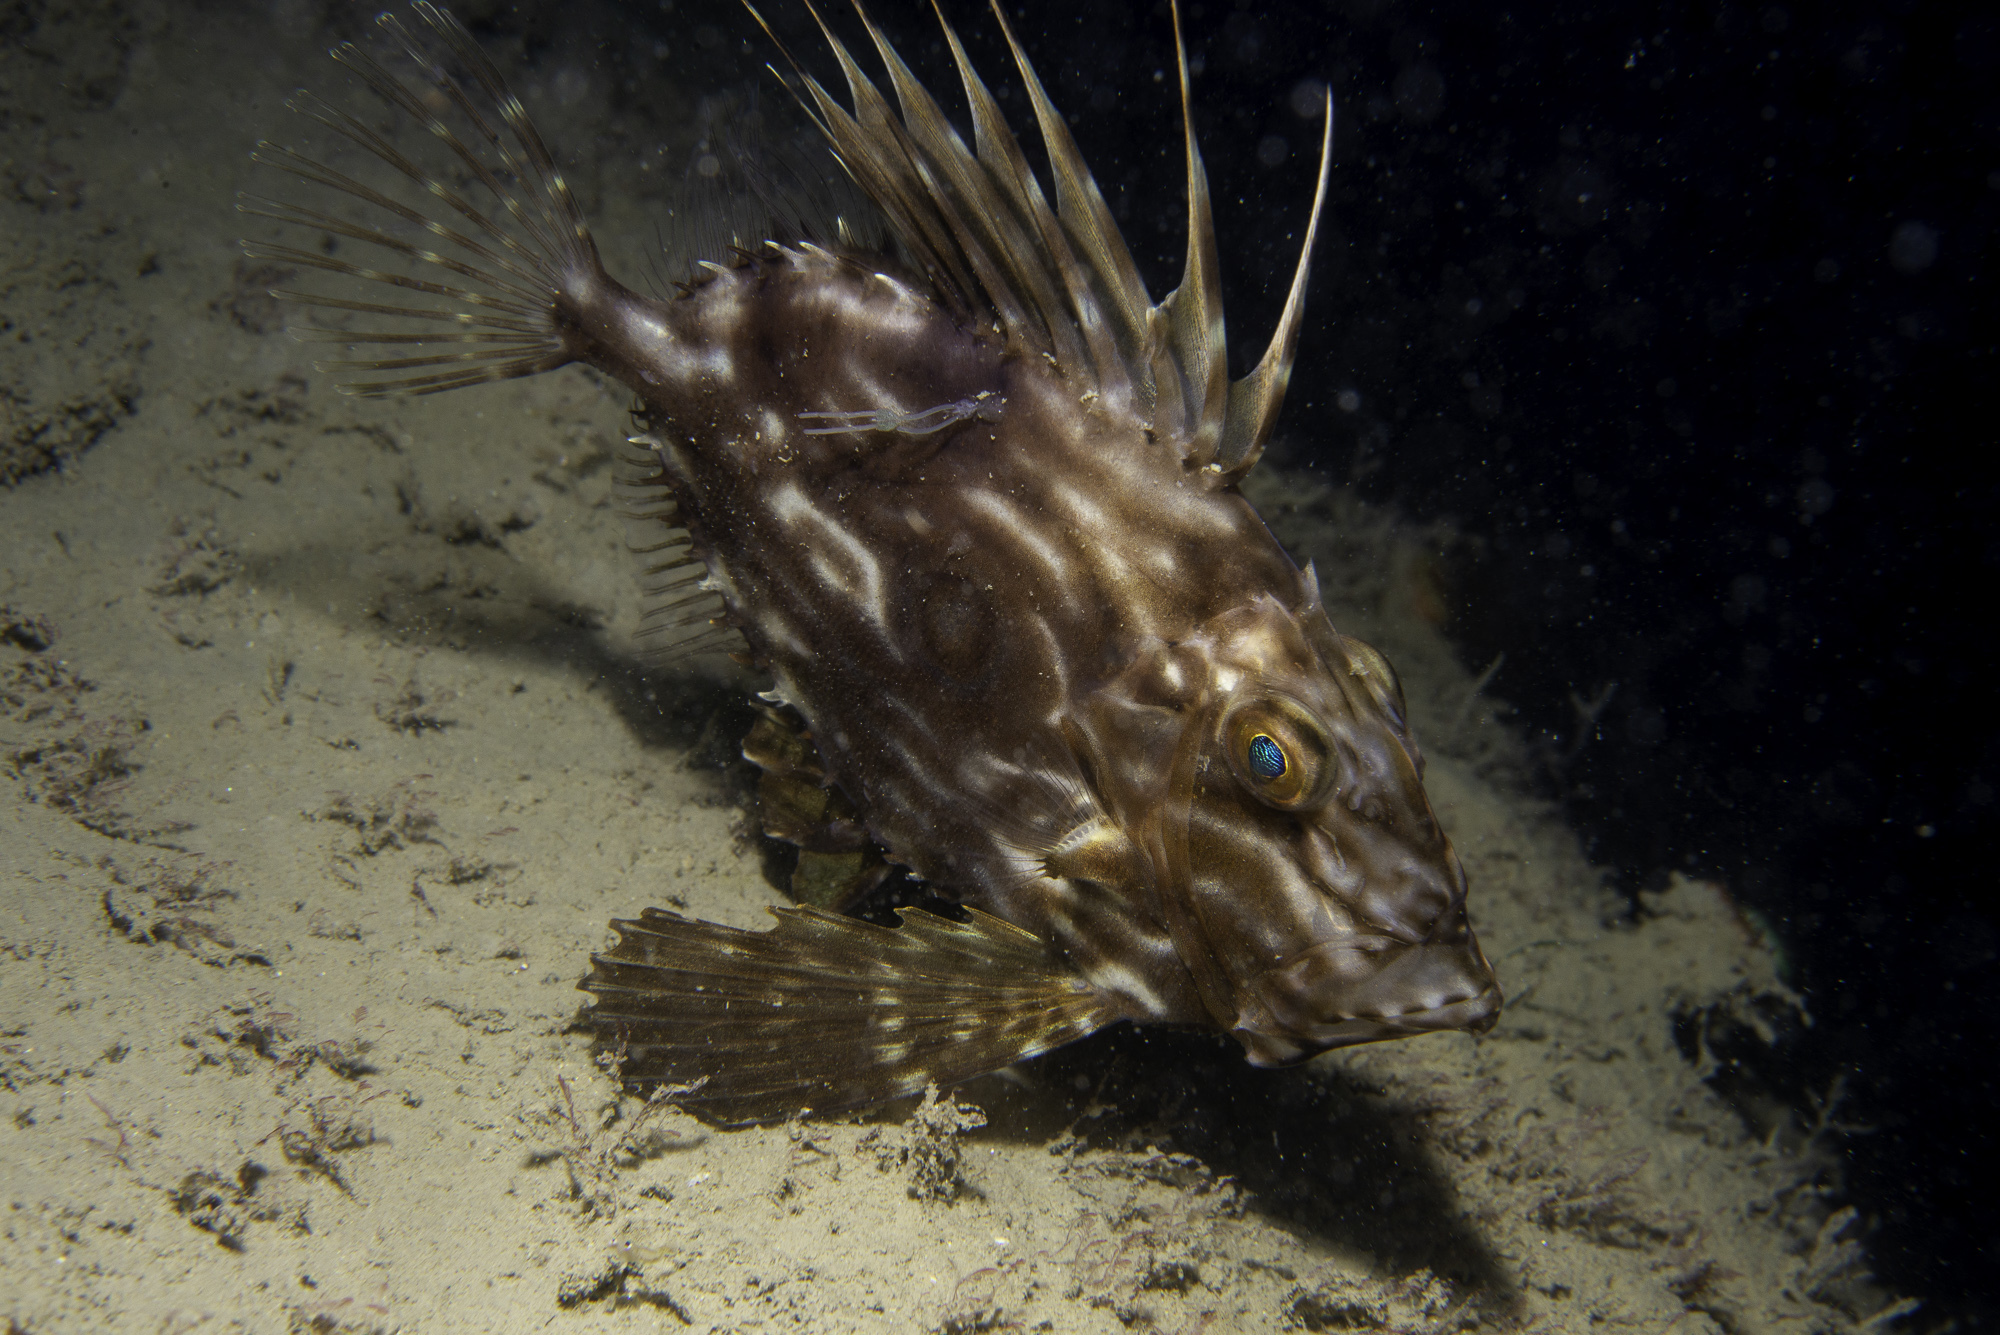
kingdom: Animalia
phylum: Chordata
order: Zeiformes
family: Zeidae
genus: Zeus
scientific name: Zeus faber
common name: John dory
